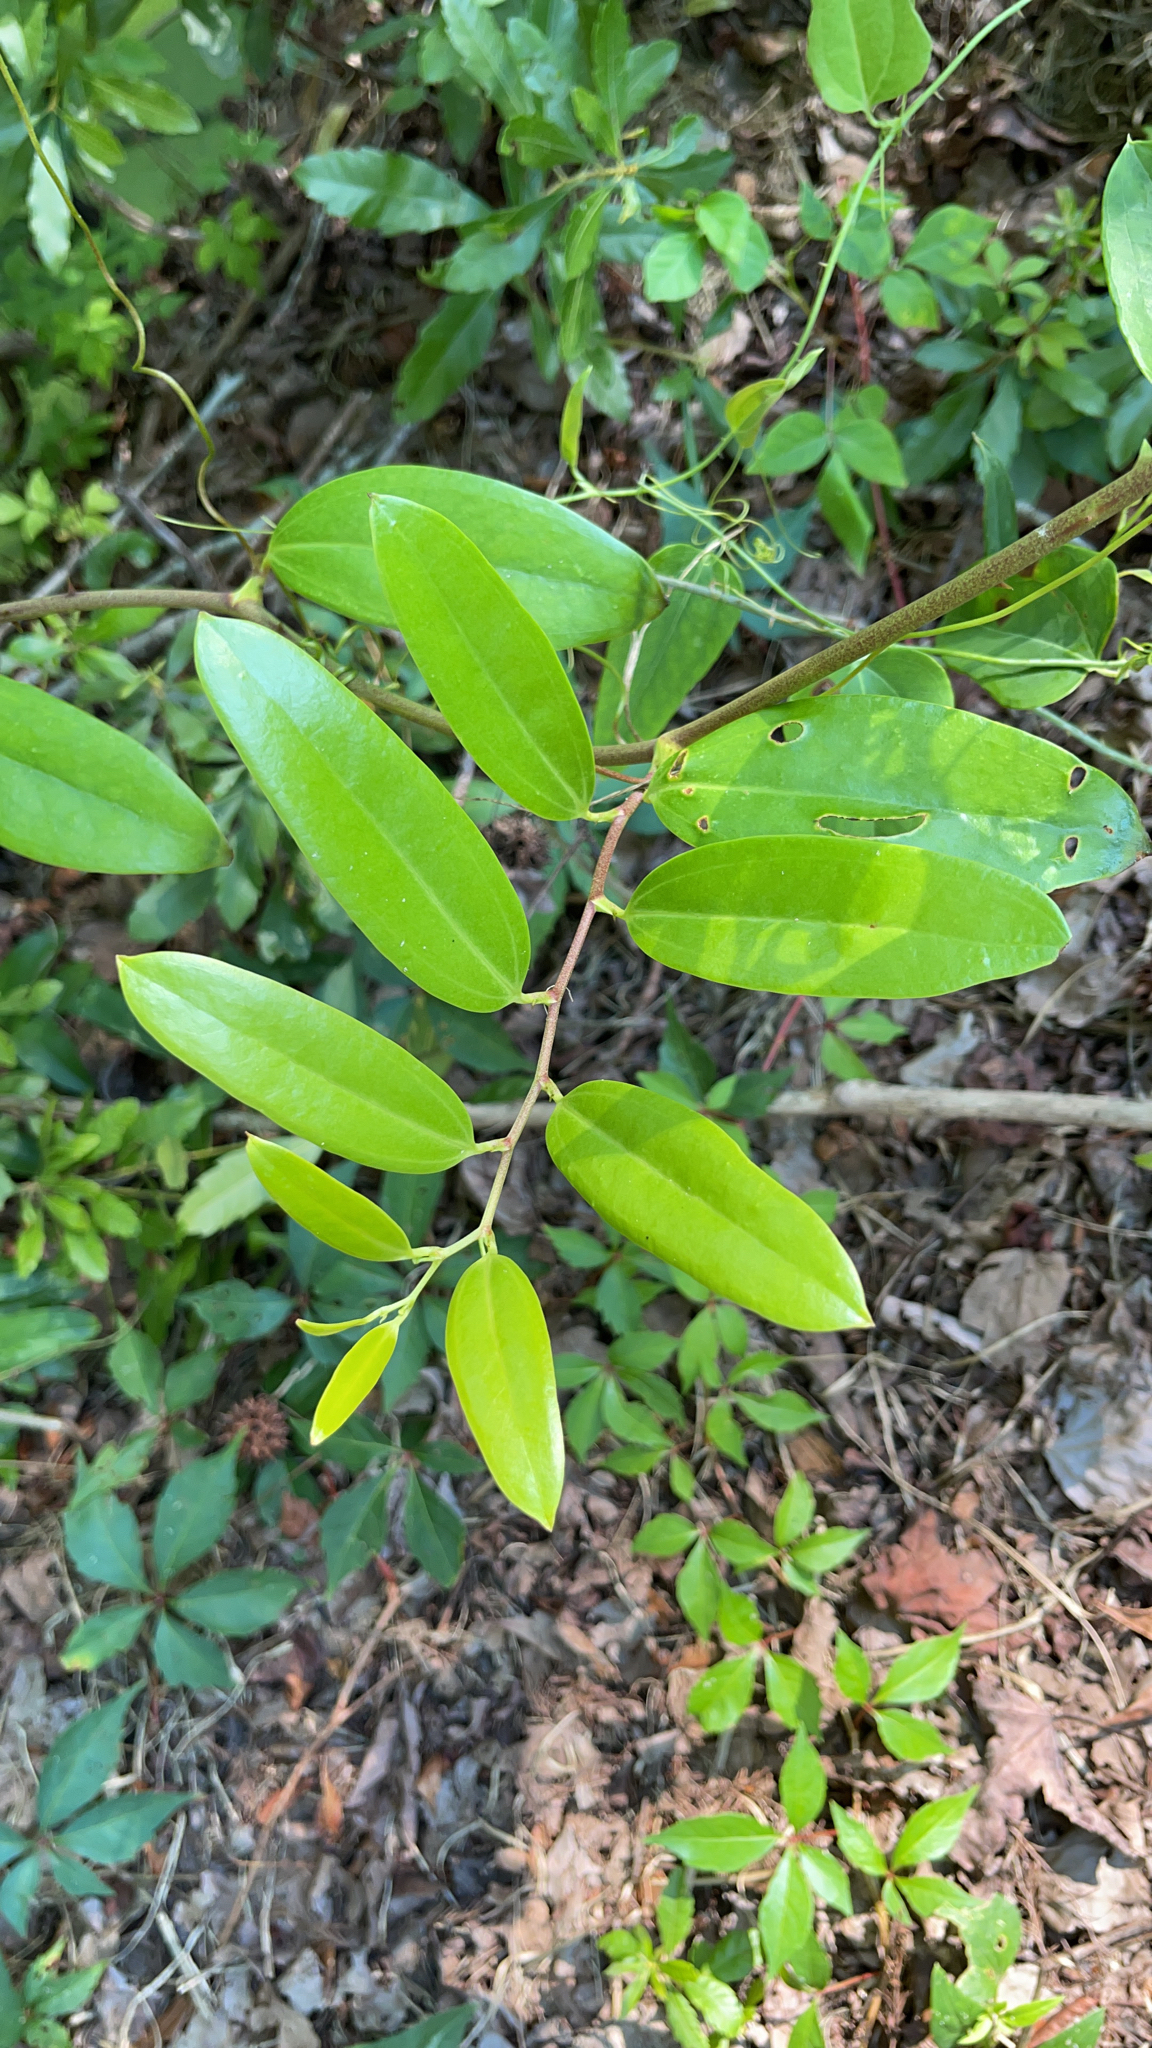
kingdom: Plantae
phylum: Tracheophyta
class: Liliopsida
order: Liliales
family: Smilacaceae
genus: Smilax
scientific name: Smilax laurifolia
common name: Bamboovine
